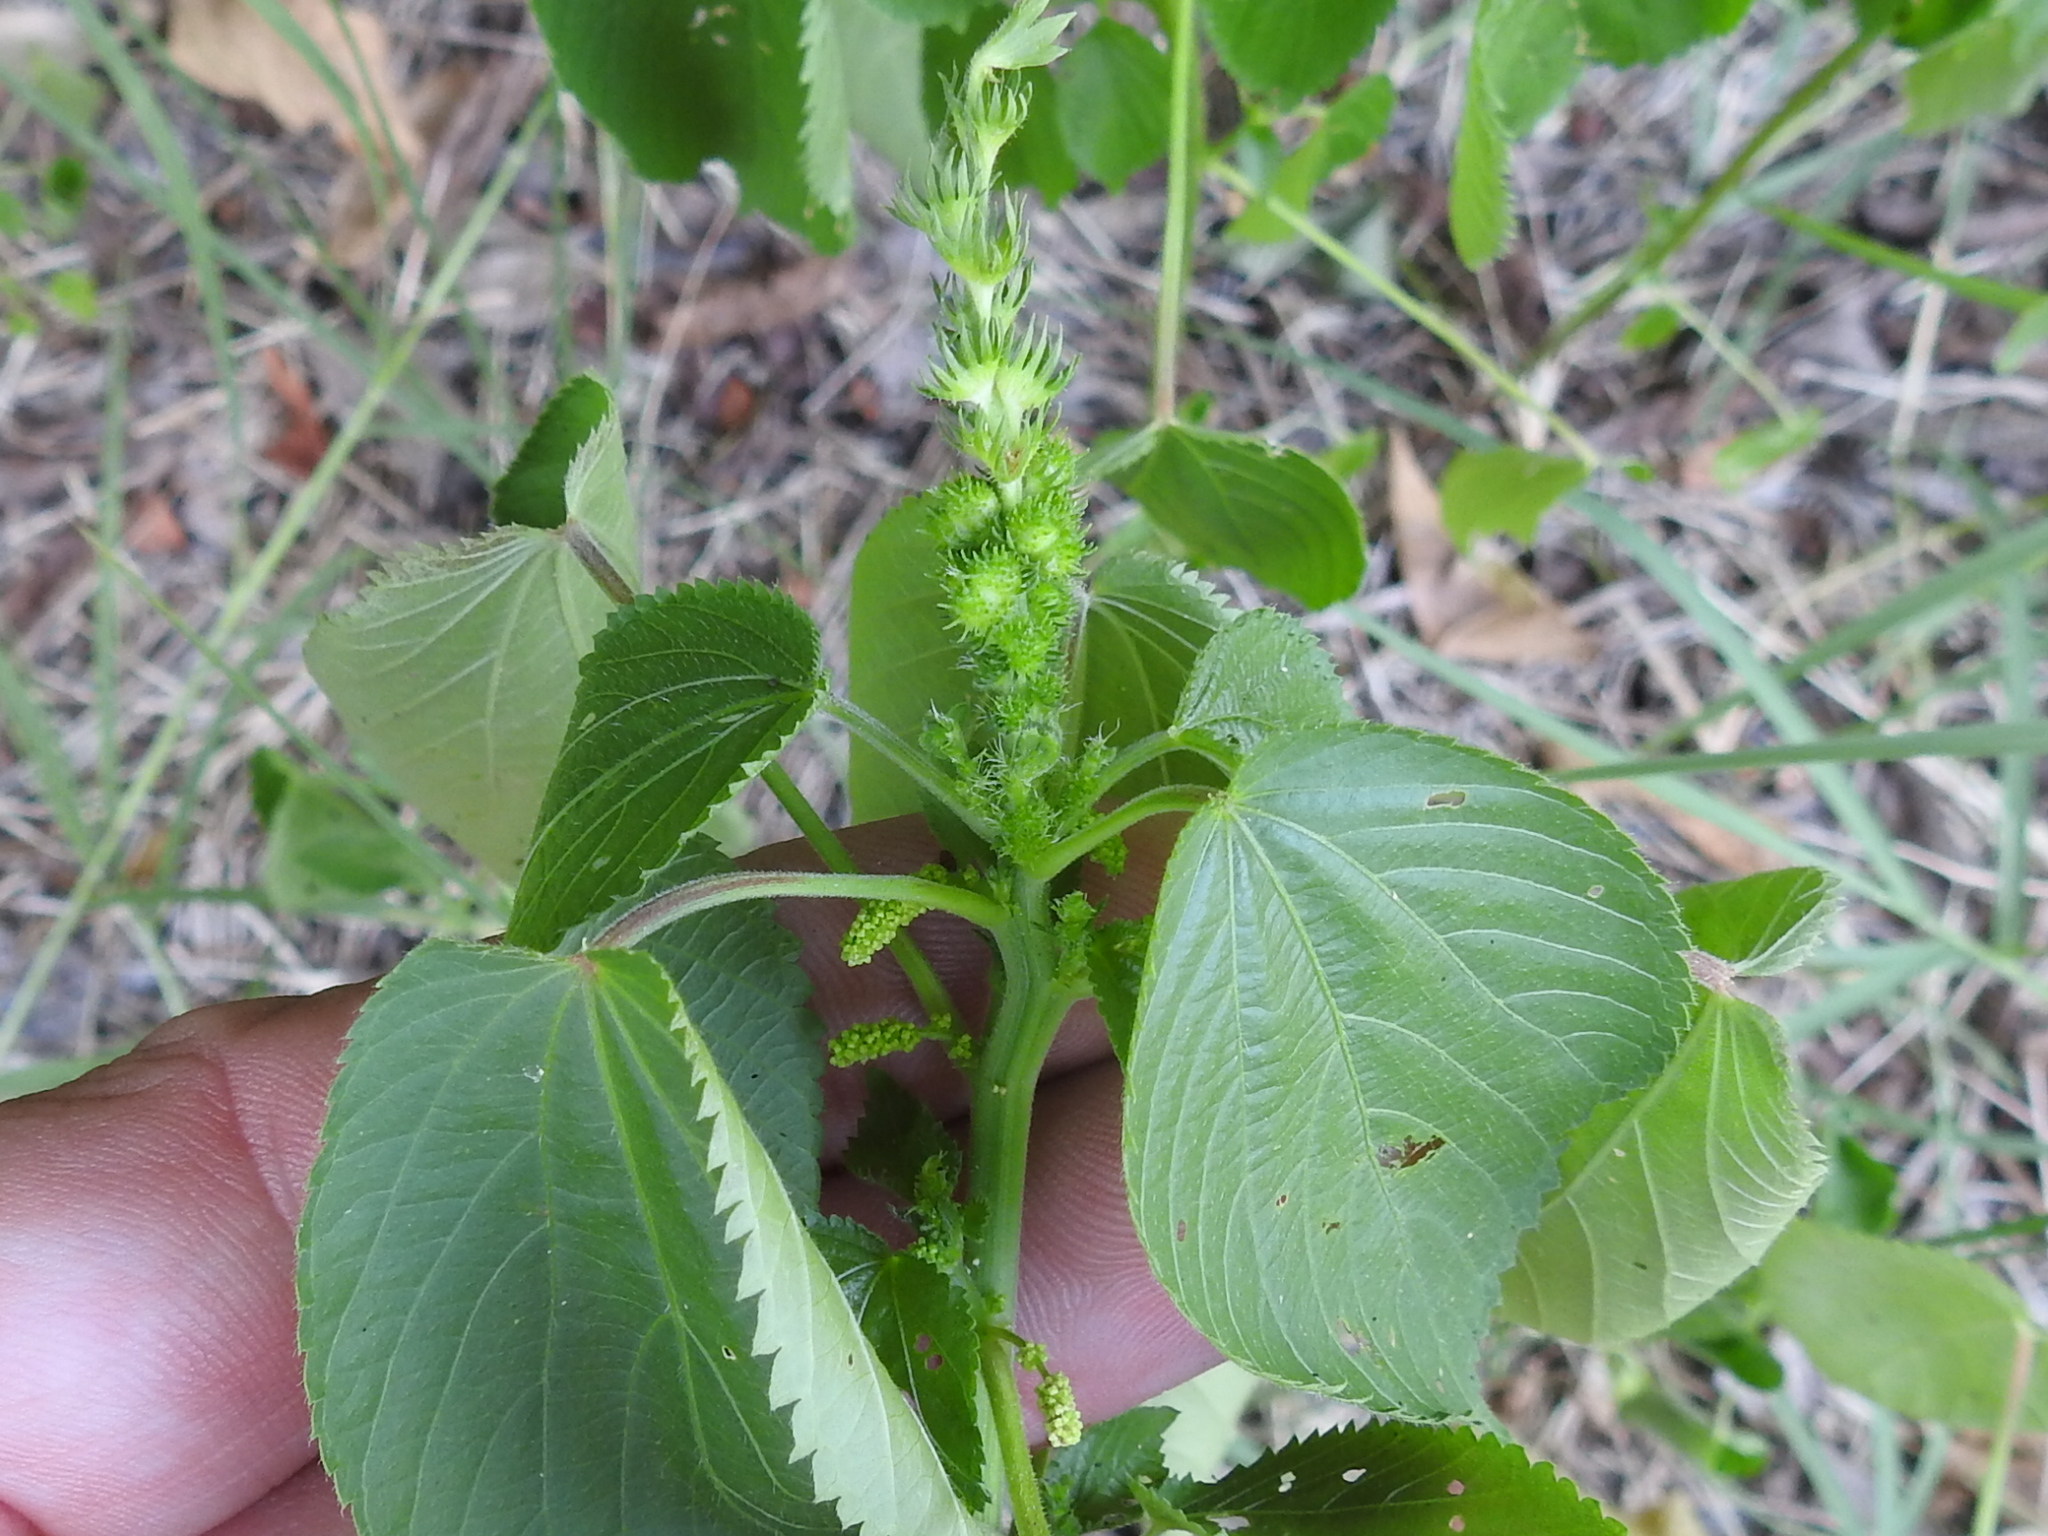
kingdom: Plantae
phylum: Tracheophyta
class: Magnoliopsida
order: Malpighiales
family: Euphorbiaceae
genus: Acalypha
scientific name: Acalypha ostryifolia
